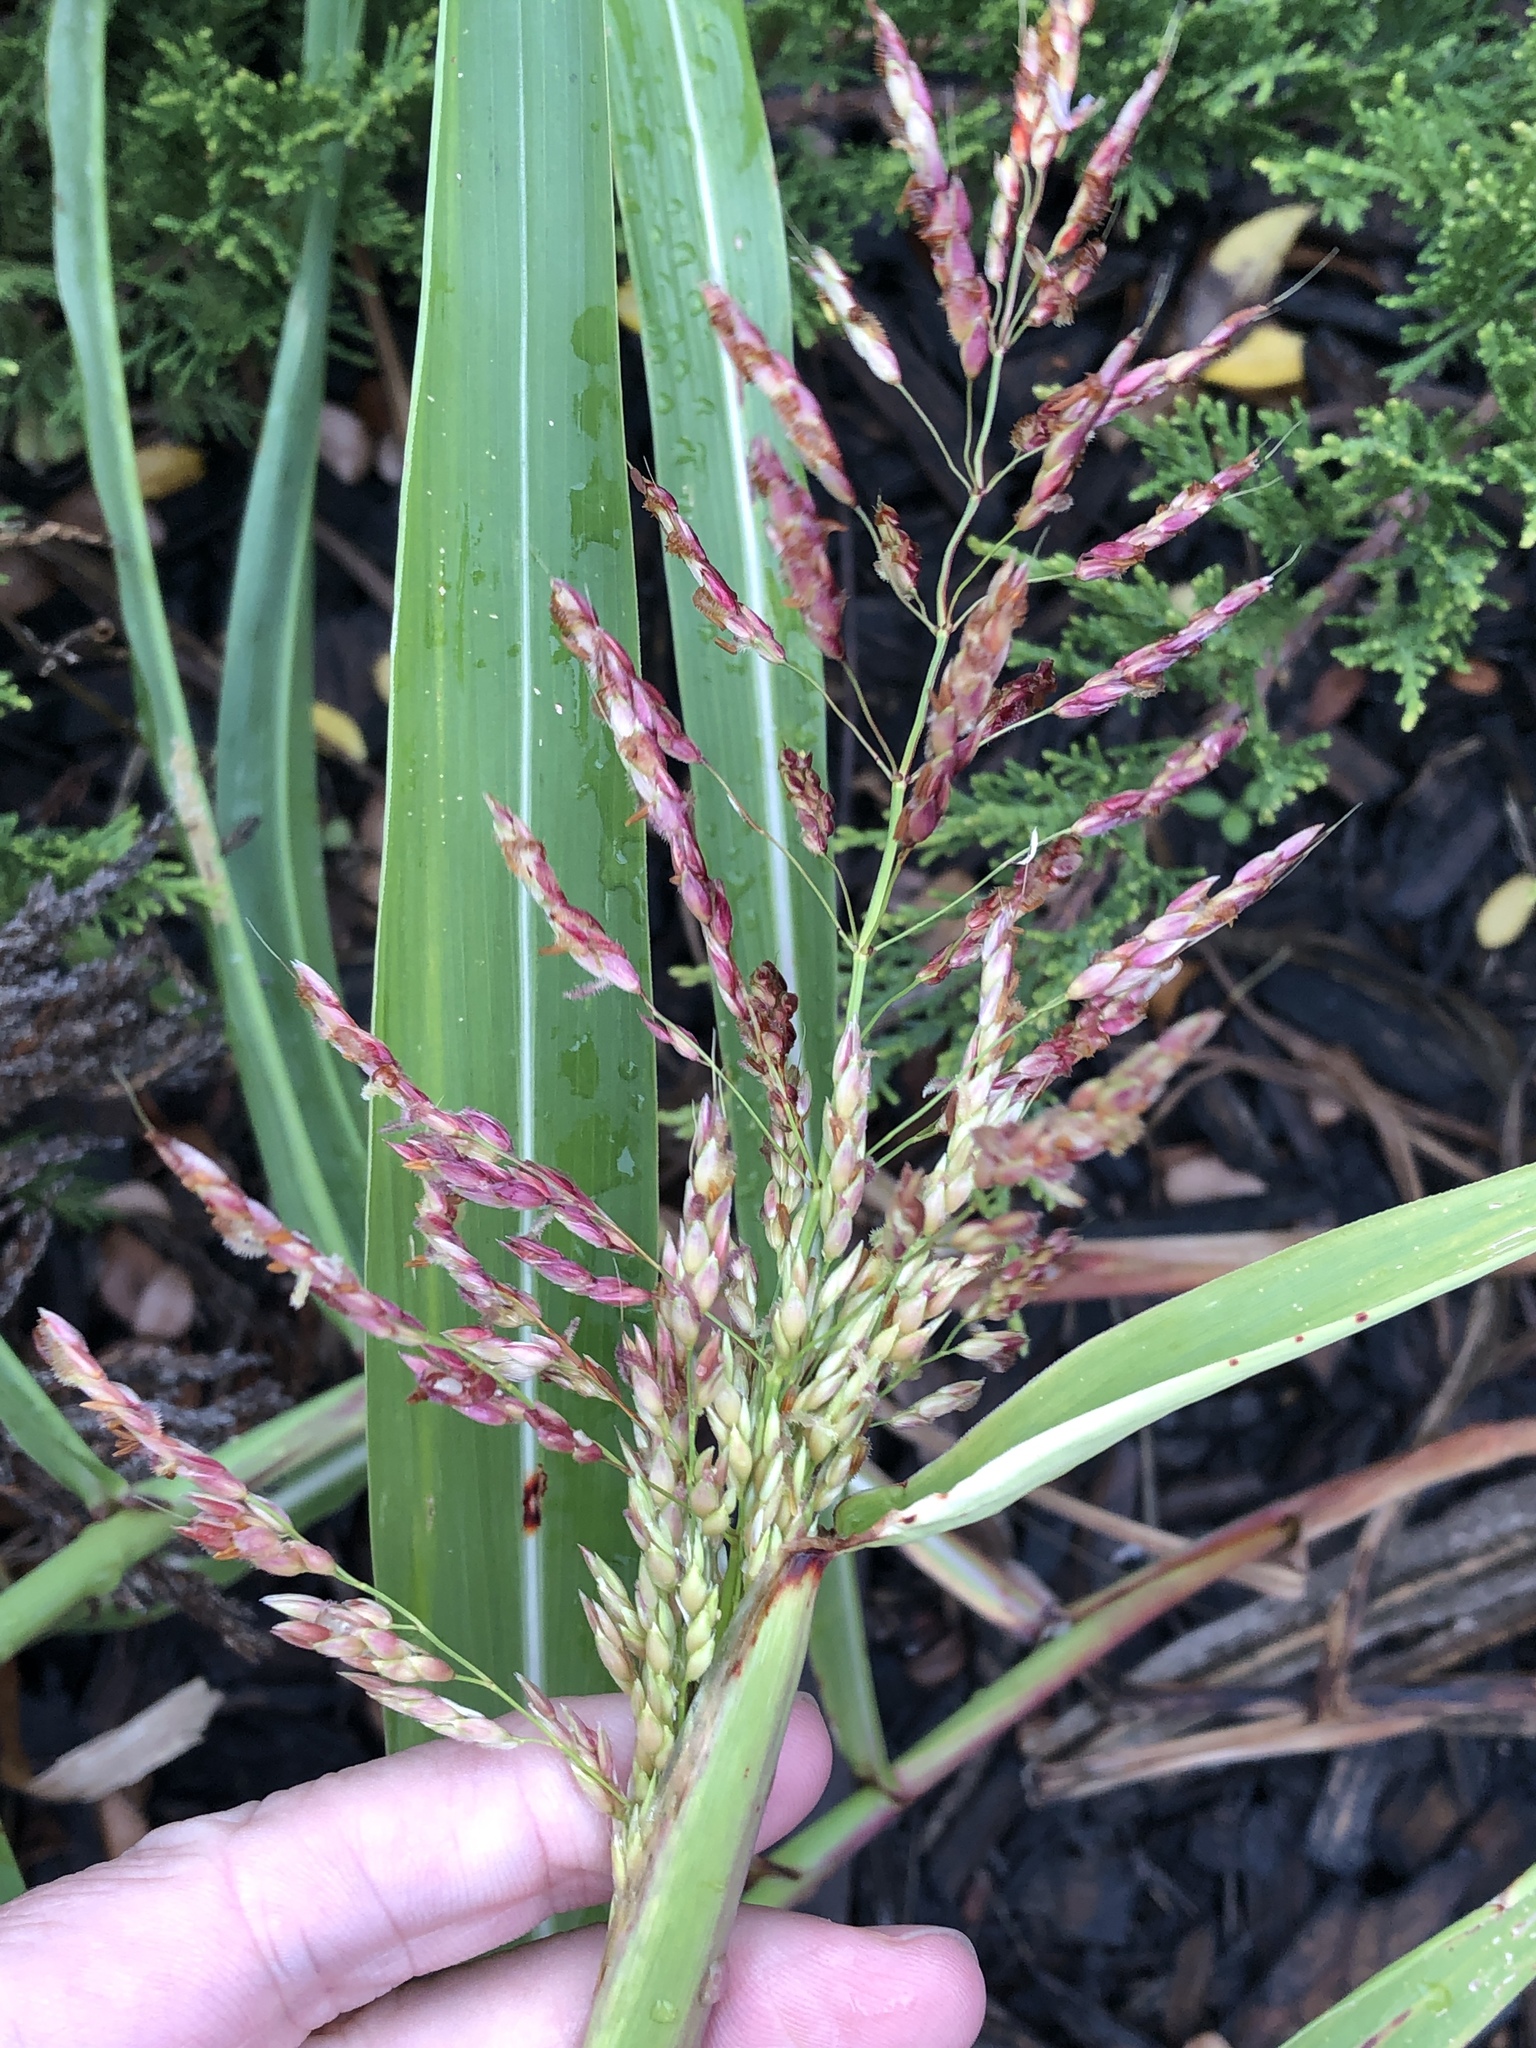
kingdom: Plantae
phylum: Tracheophyta
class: Liliopsida
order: Poales
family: Poaceae
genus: Sorghum
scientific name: Sorghum halepense
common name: Johnson-grass
